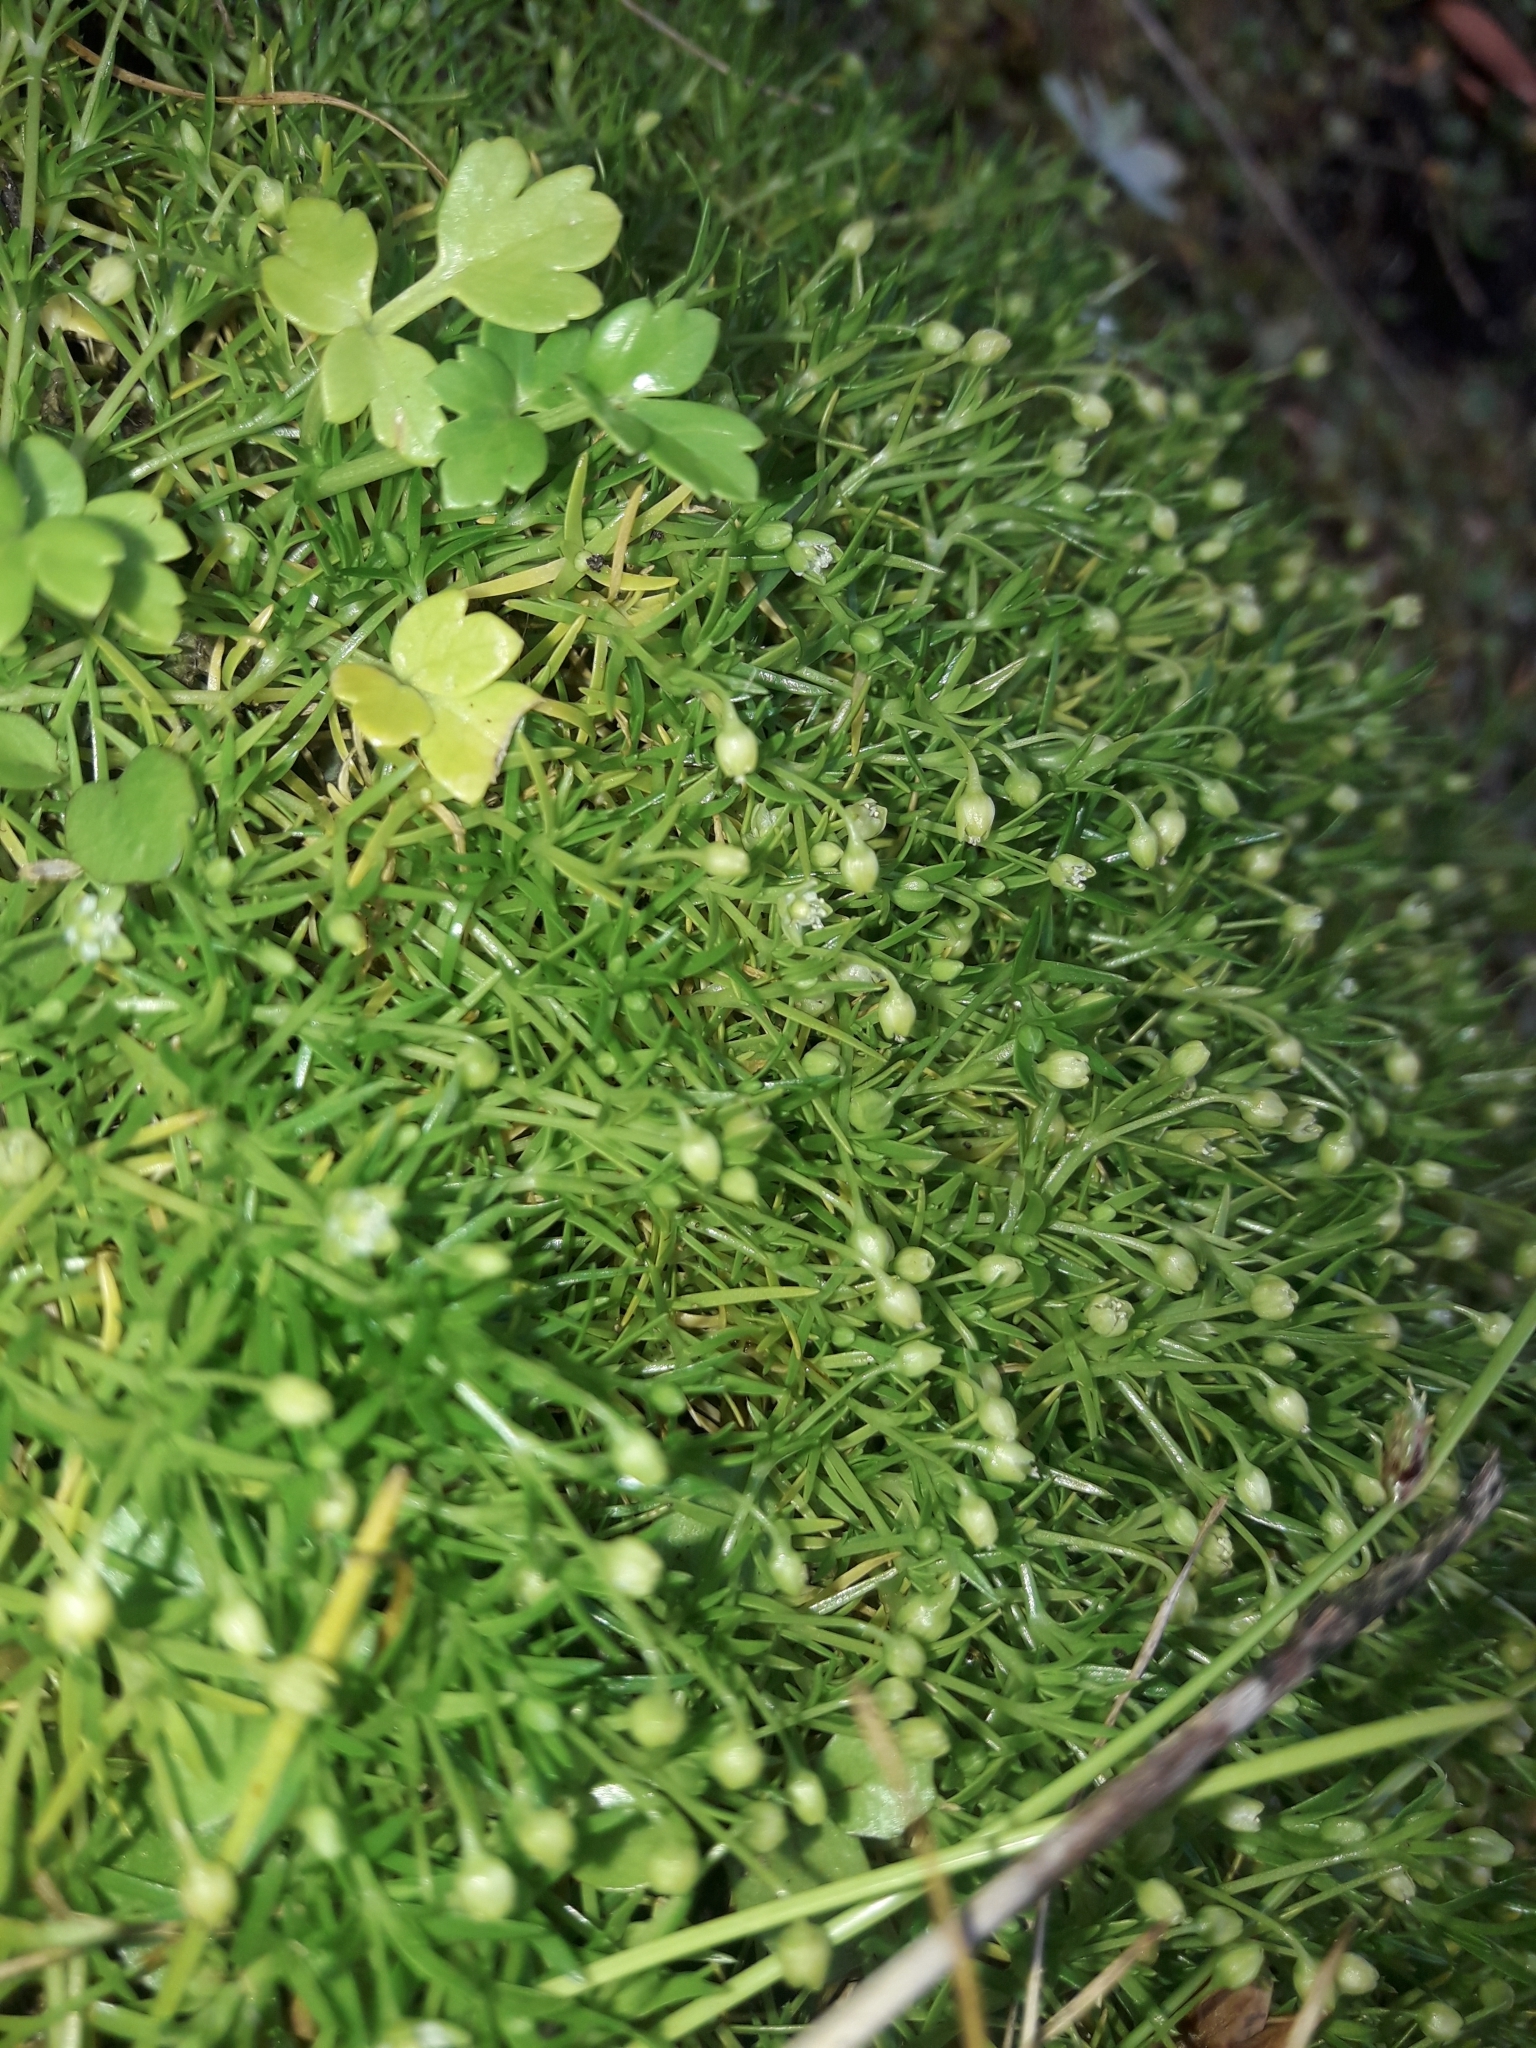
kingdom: Plantae
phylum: Tracheophyta
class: Magnoliopsida
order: Caryophyllales
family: Caryophyllaceae
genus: Sagina
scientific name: Sagina procumbens
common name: Procumbent pearlwort
